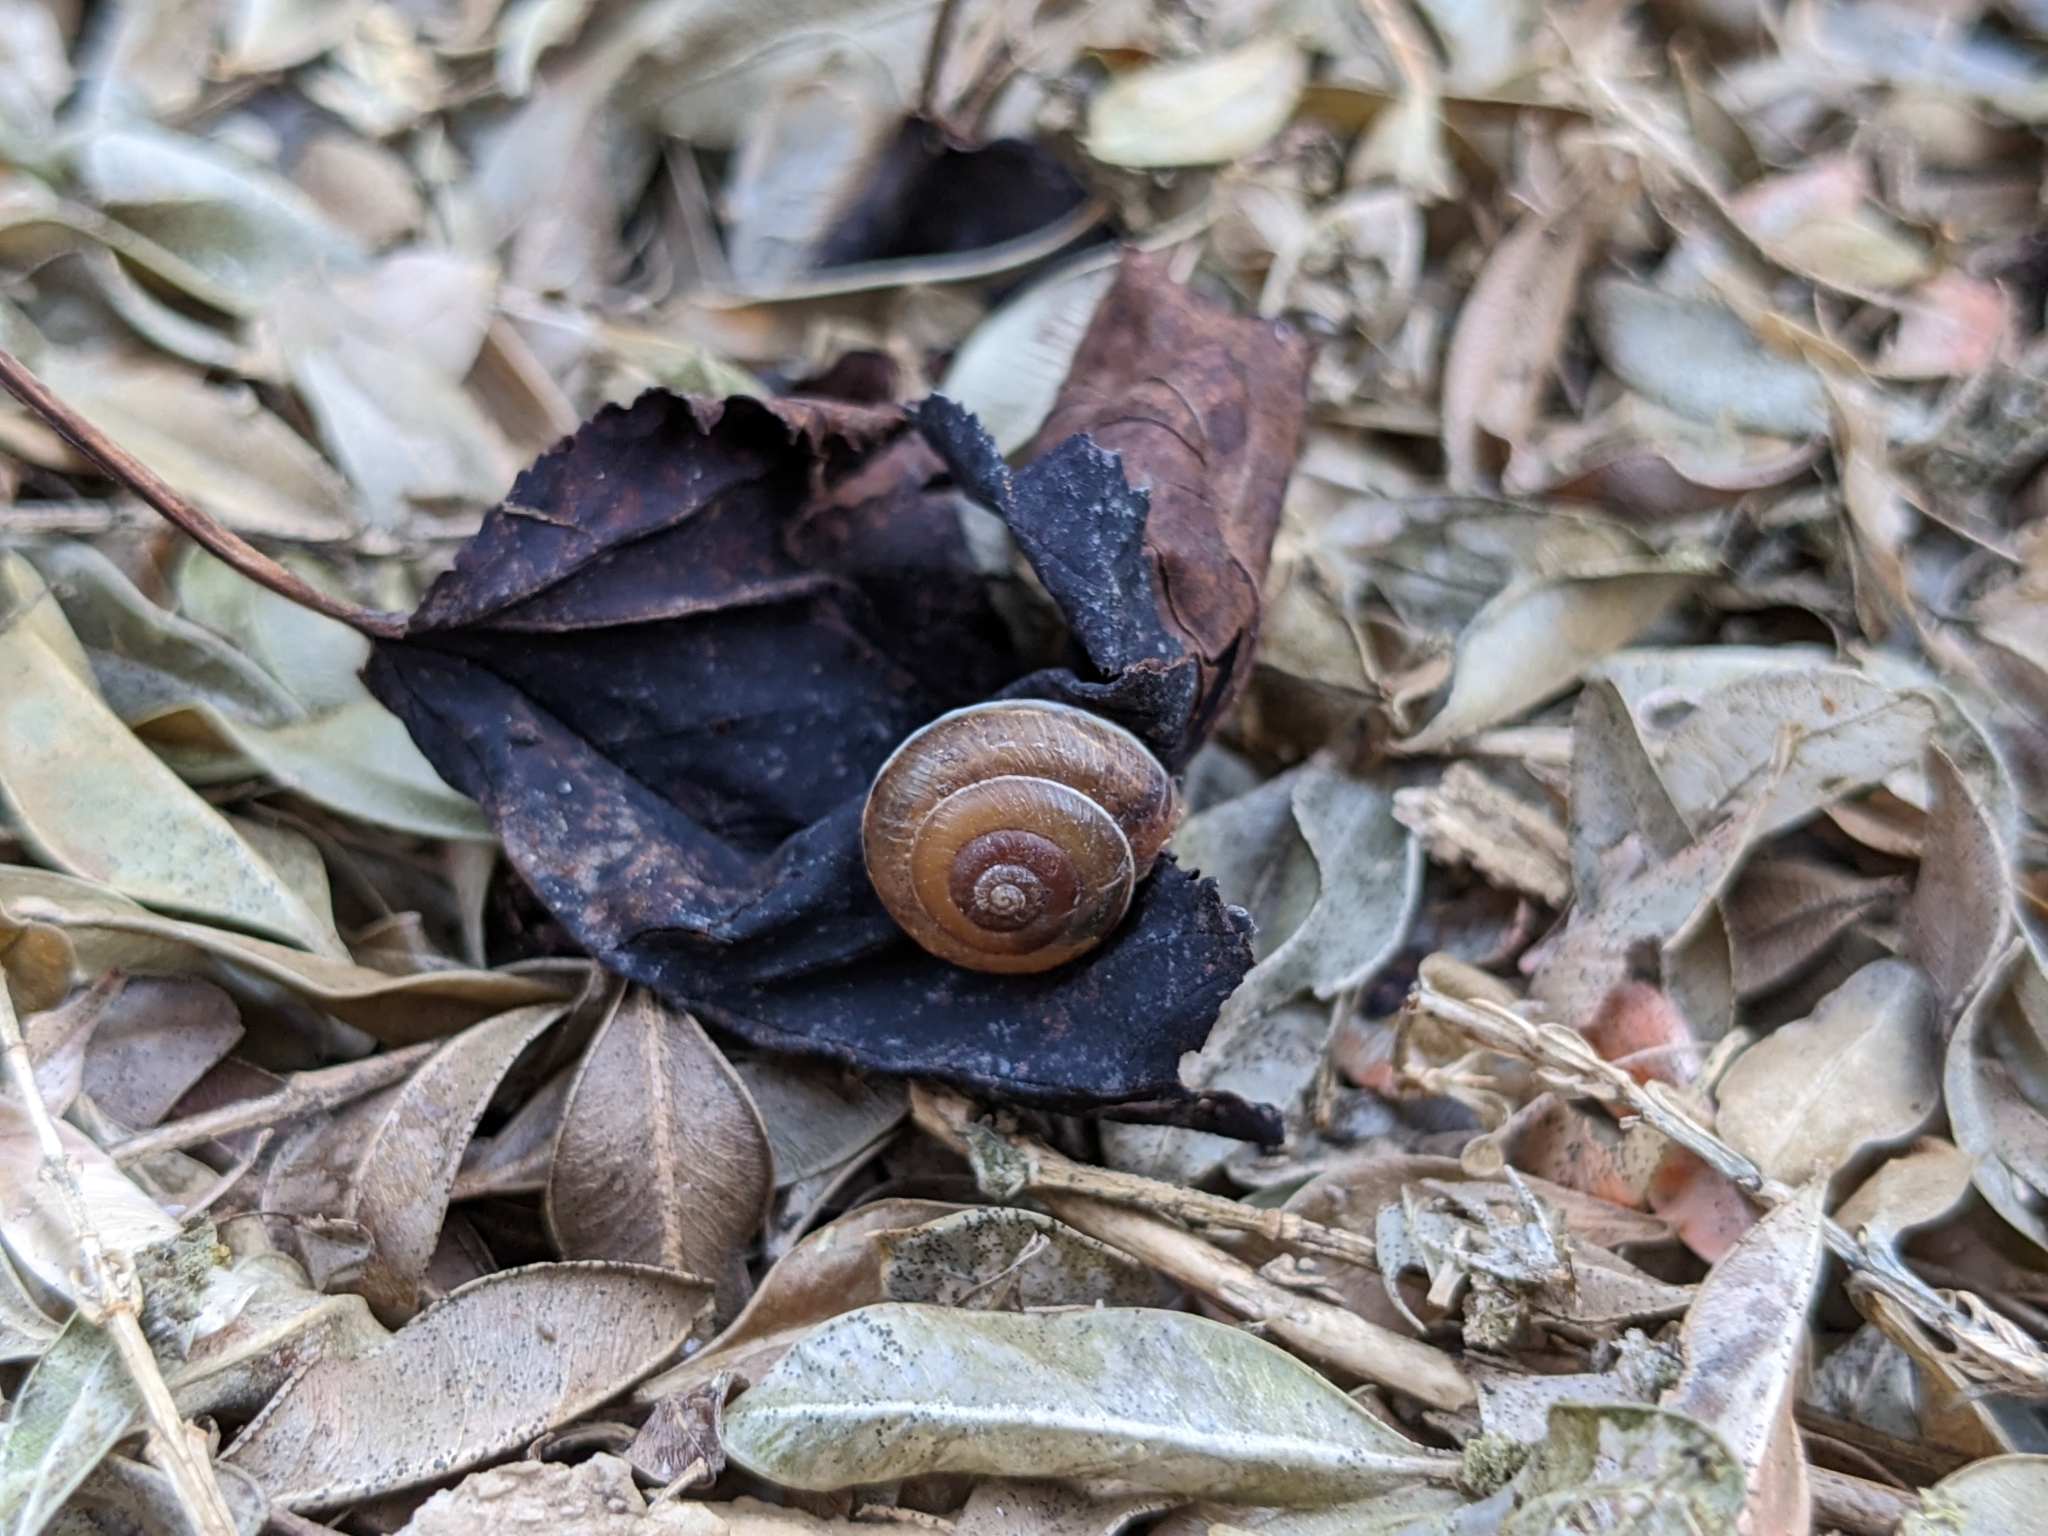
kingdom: Animalia
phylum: Mollusca
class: Gastropoda
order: Stylommatophora
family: Hygromiidae
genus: Hygromia
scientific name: Hygromia cinctella
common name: Girdled snail
